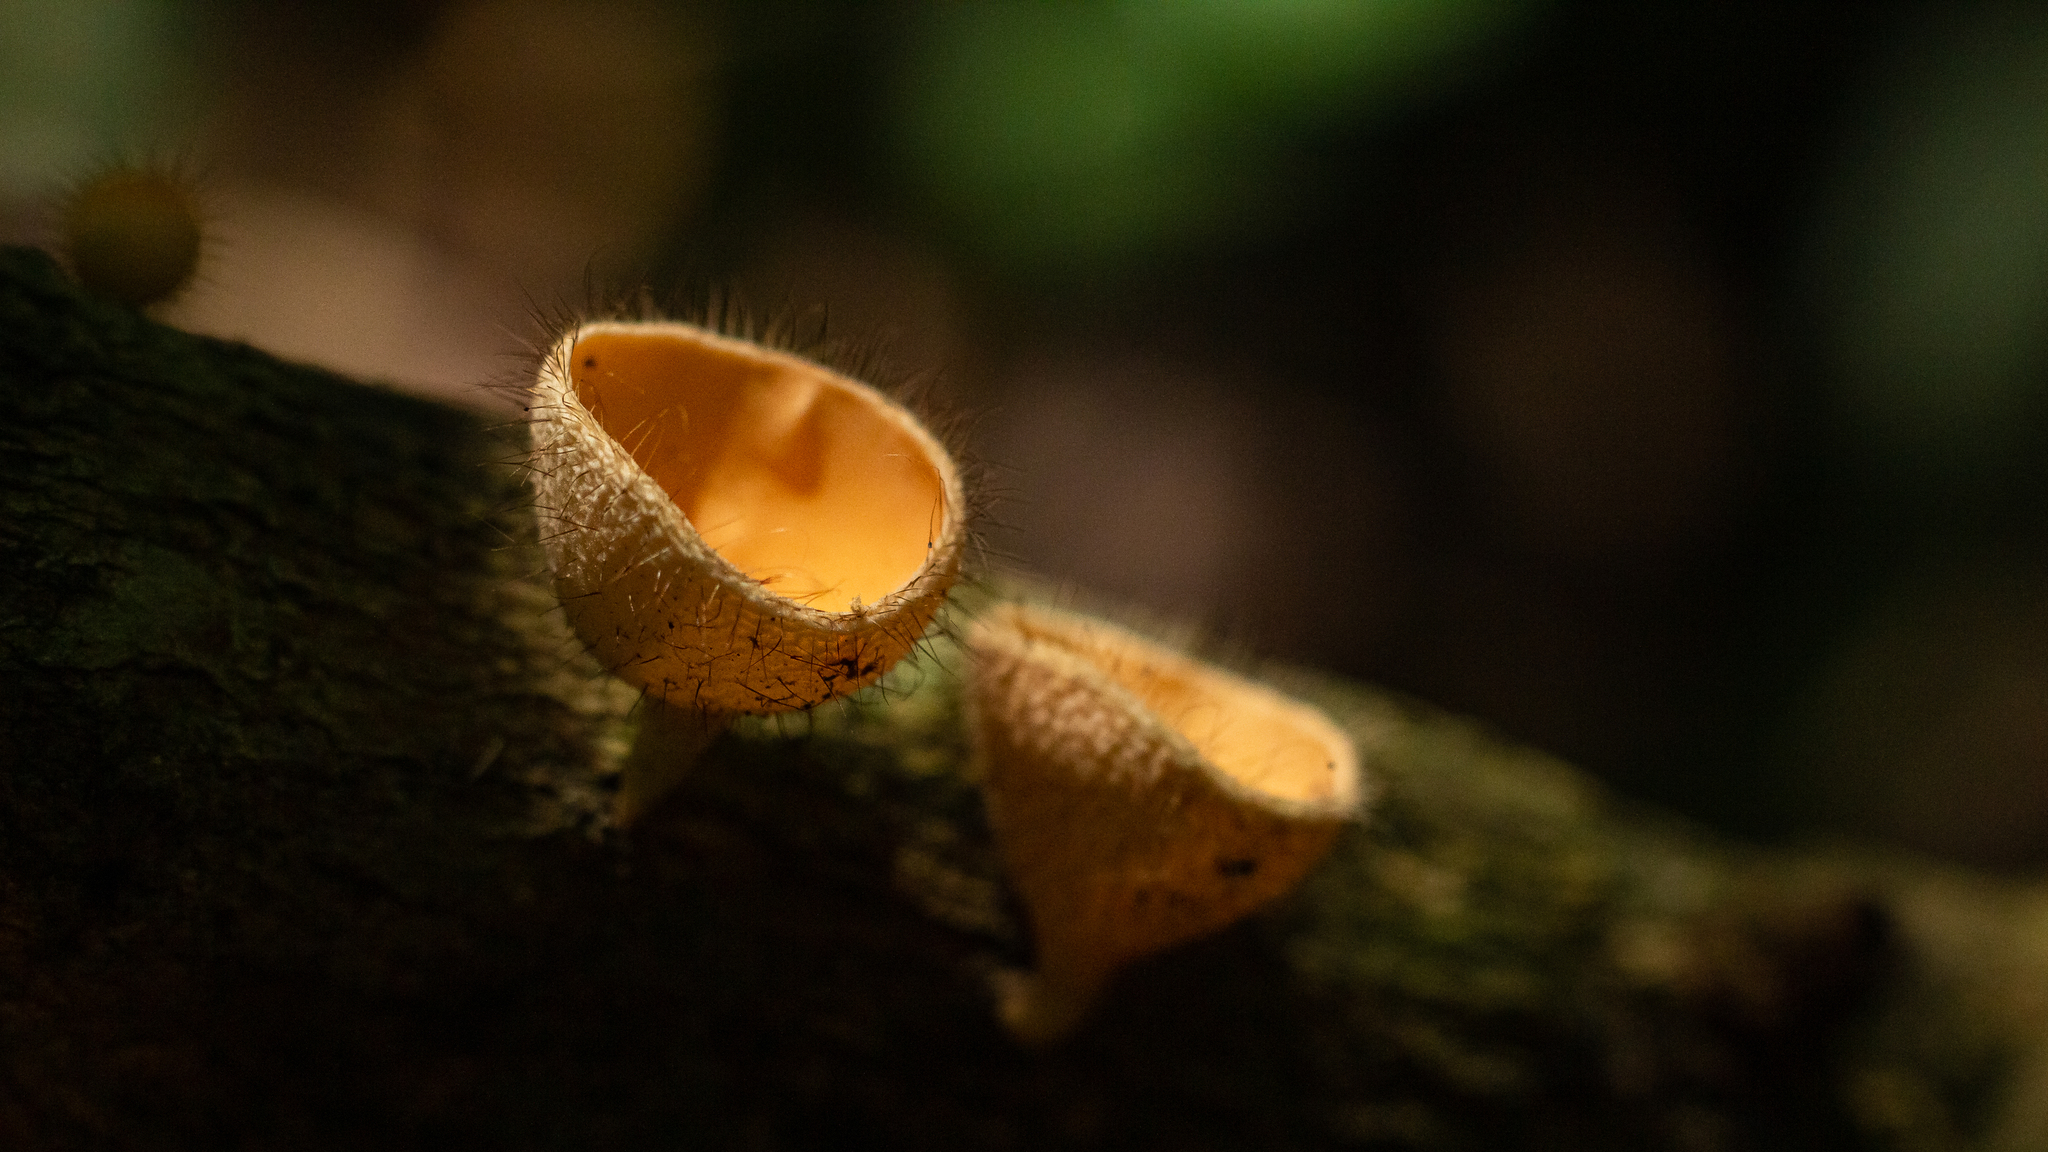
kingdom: Fungi
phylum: Ascomycota
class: Pezizomycetes
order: Pezizales
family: Sarcoscyphaceae
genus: Cookeina
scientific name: Cookeina tricholoma
